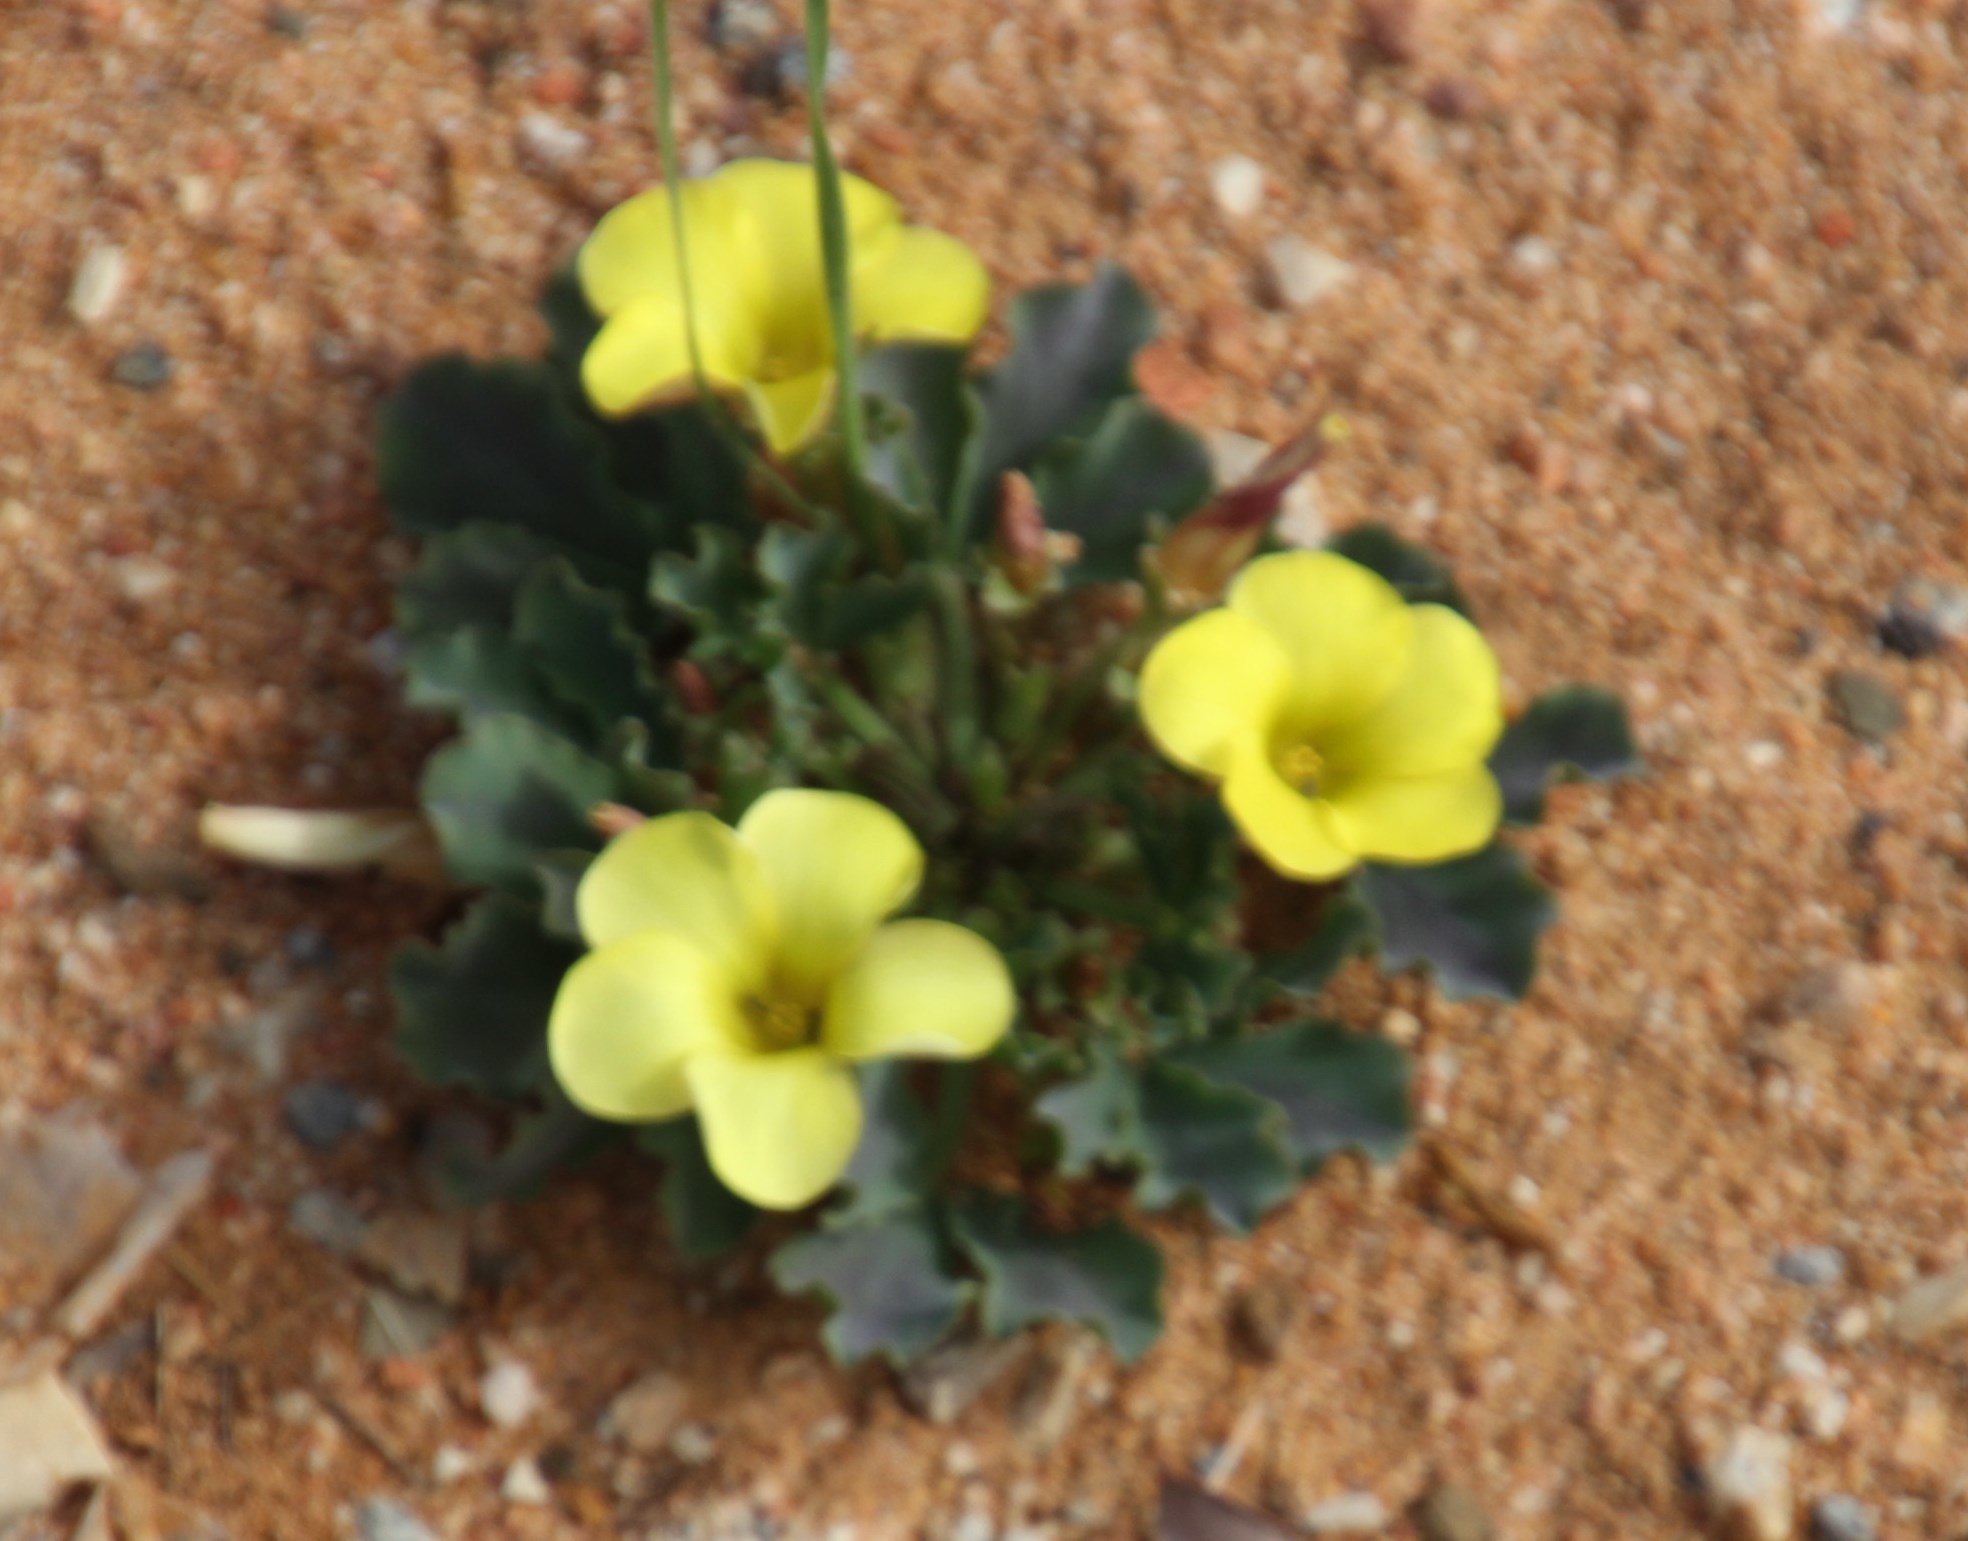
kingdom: Plantae
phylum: Tracheophyta
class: Magnoliopsida
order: Oxalidales
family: Oxalidaceae
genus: Oxalis
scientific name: Oxalis flava
